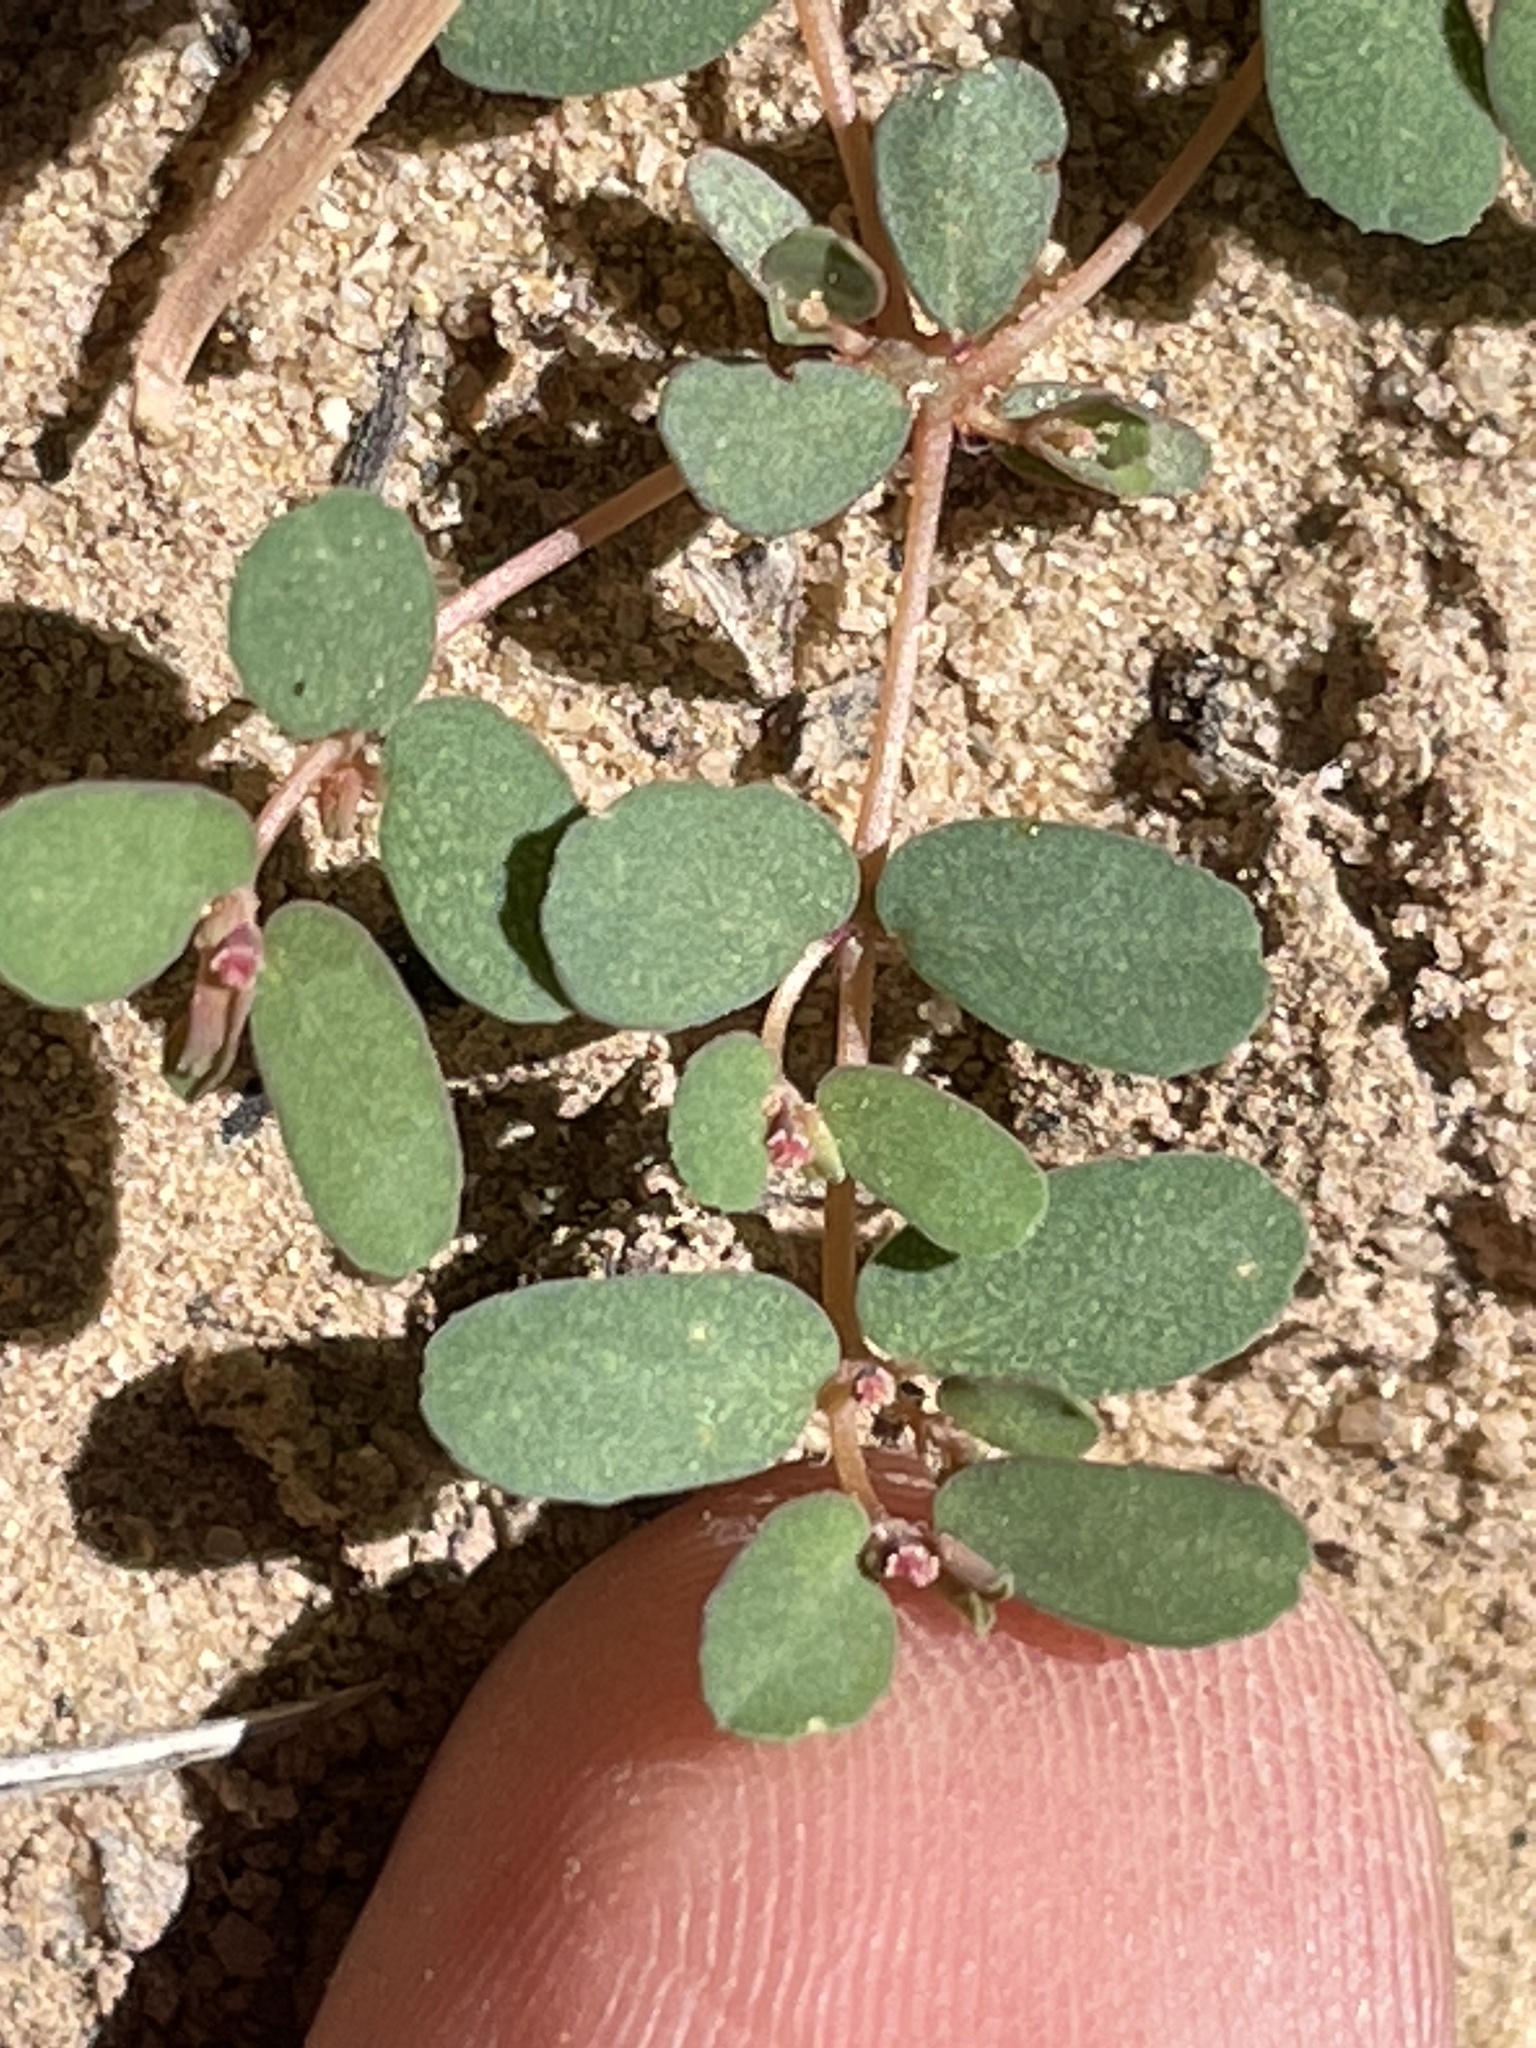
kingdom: Plantae
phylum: Tracheophyta
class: Magnoliopsida
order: Malpighiales
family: Euphorbiaceae
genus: Euphorbia
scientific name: Euphorbia serpillifolia
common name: Thyme-leaf spurge
